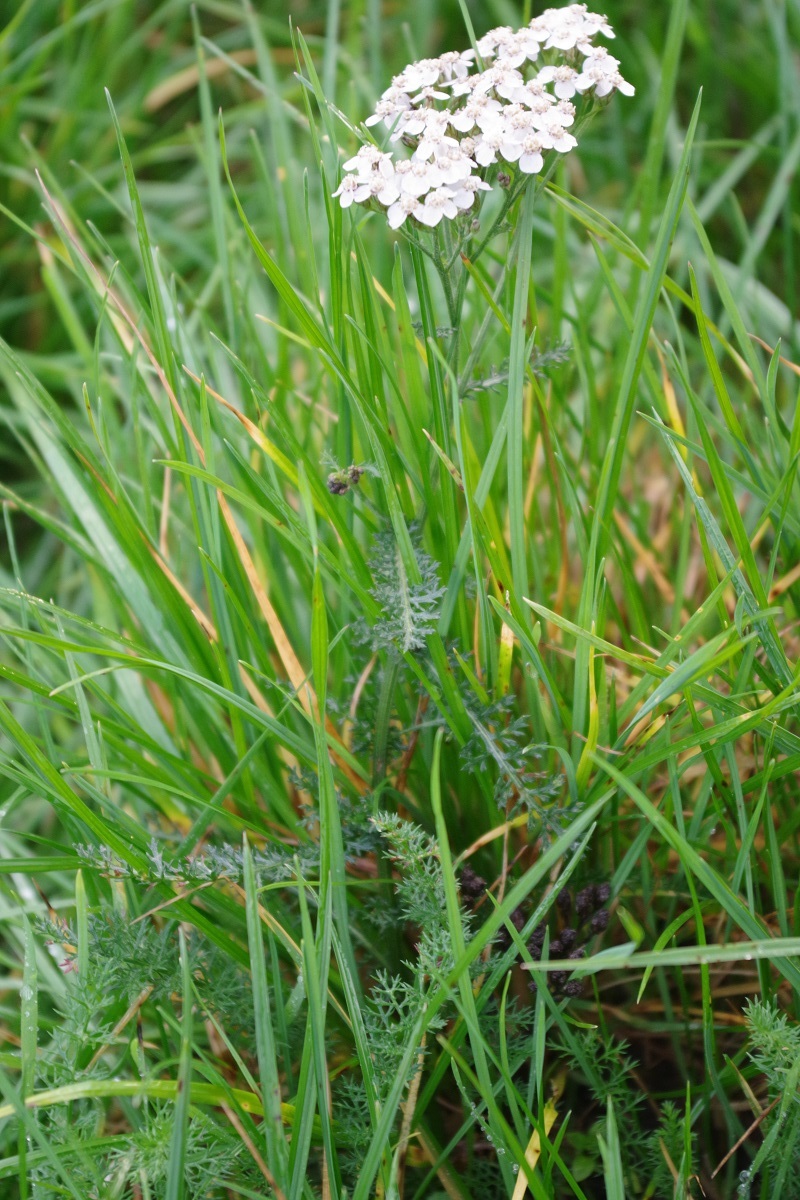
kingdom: Plantae
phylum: Tracheophyta
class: Magnoliopsida
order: Asterales
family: Asteraceae
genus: Achillea
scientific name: Achillea millefolium
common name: Yarrow
